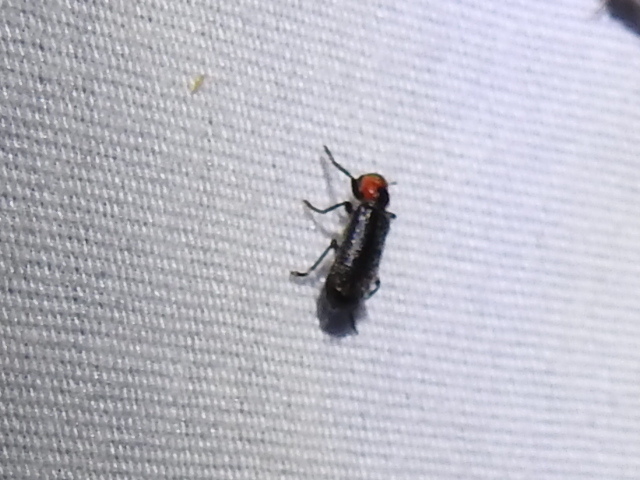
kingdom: Animalia
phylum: Arthropoda
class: Insecta
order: Coleoptera
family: Cleridae
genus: Placopterus
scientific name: Placopterus thoracicus
